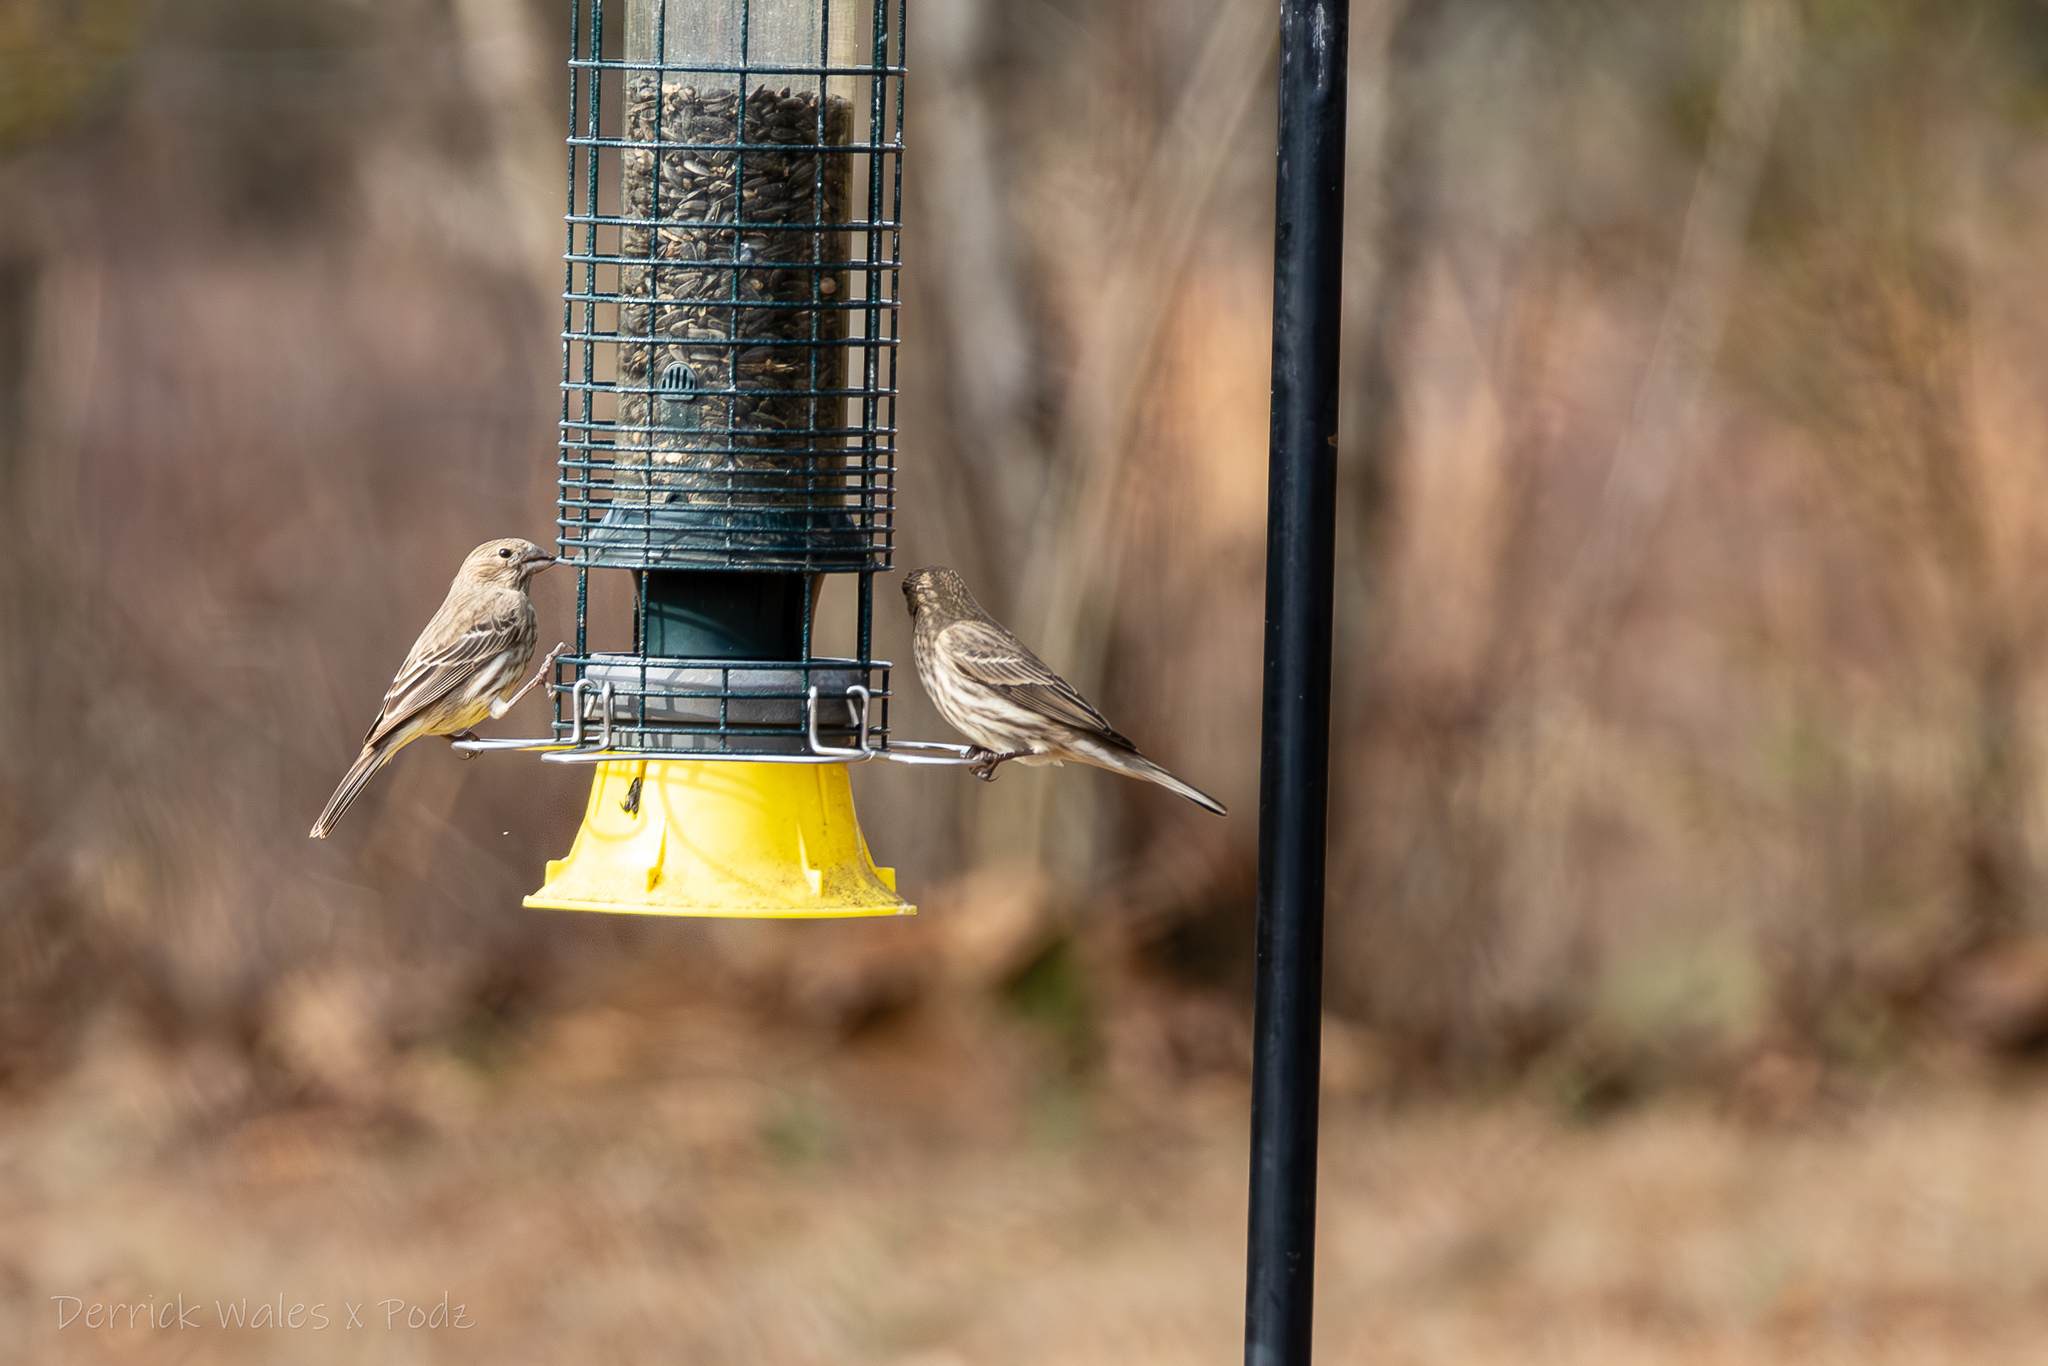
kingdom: Animalia
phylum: Chordata
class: Aves
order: Passeriformes
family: Fringillidae
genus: Haemorhous
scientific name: Haemorhous mexicanus
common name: House finch
